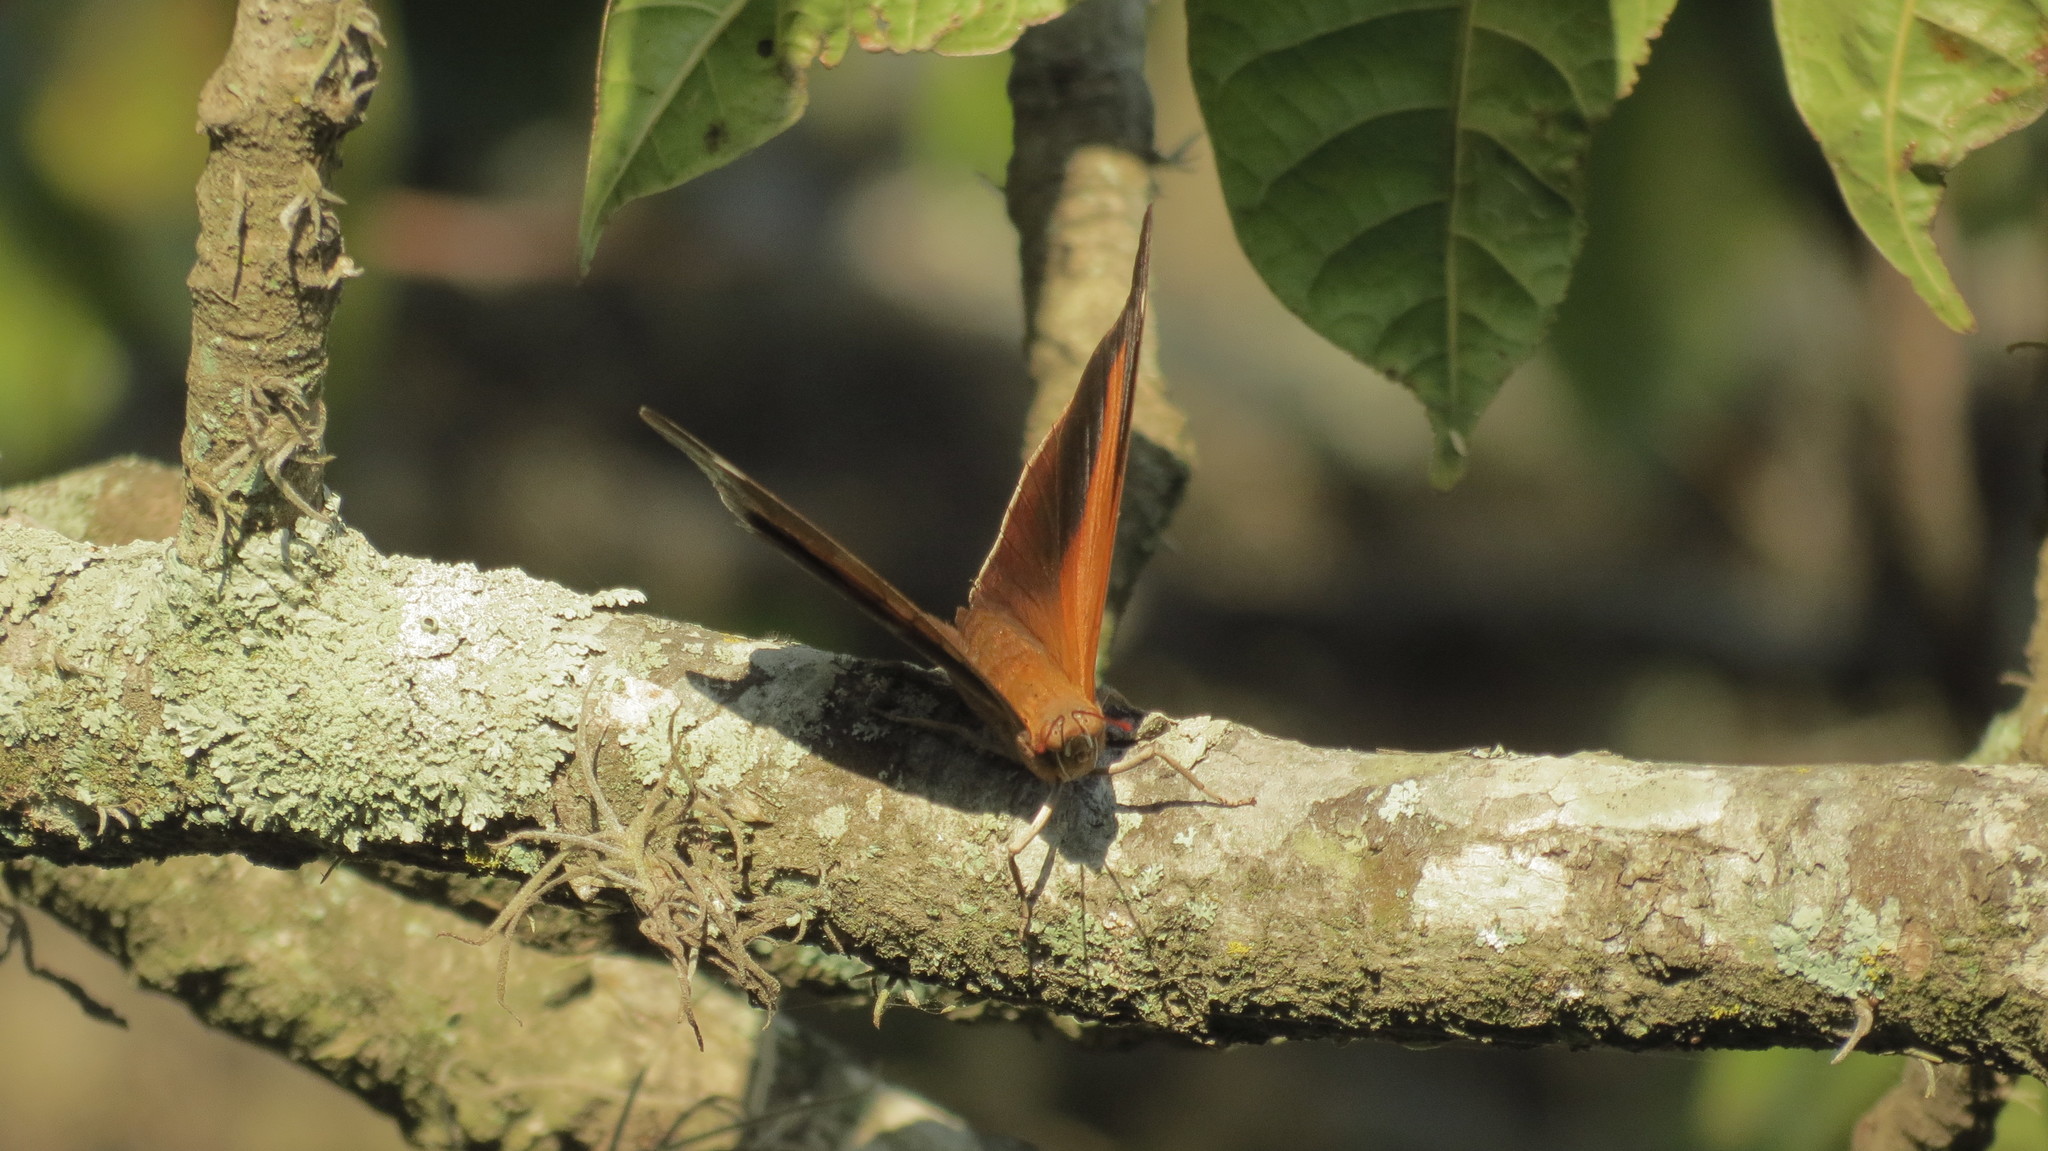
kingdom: Animalia
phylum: Arthropoda
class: Insecta
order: Lepidoptera
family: Nymphalidae
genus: Historis
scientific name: Historis odius
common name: Orion cecropian
